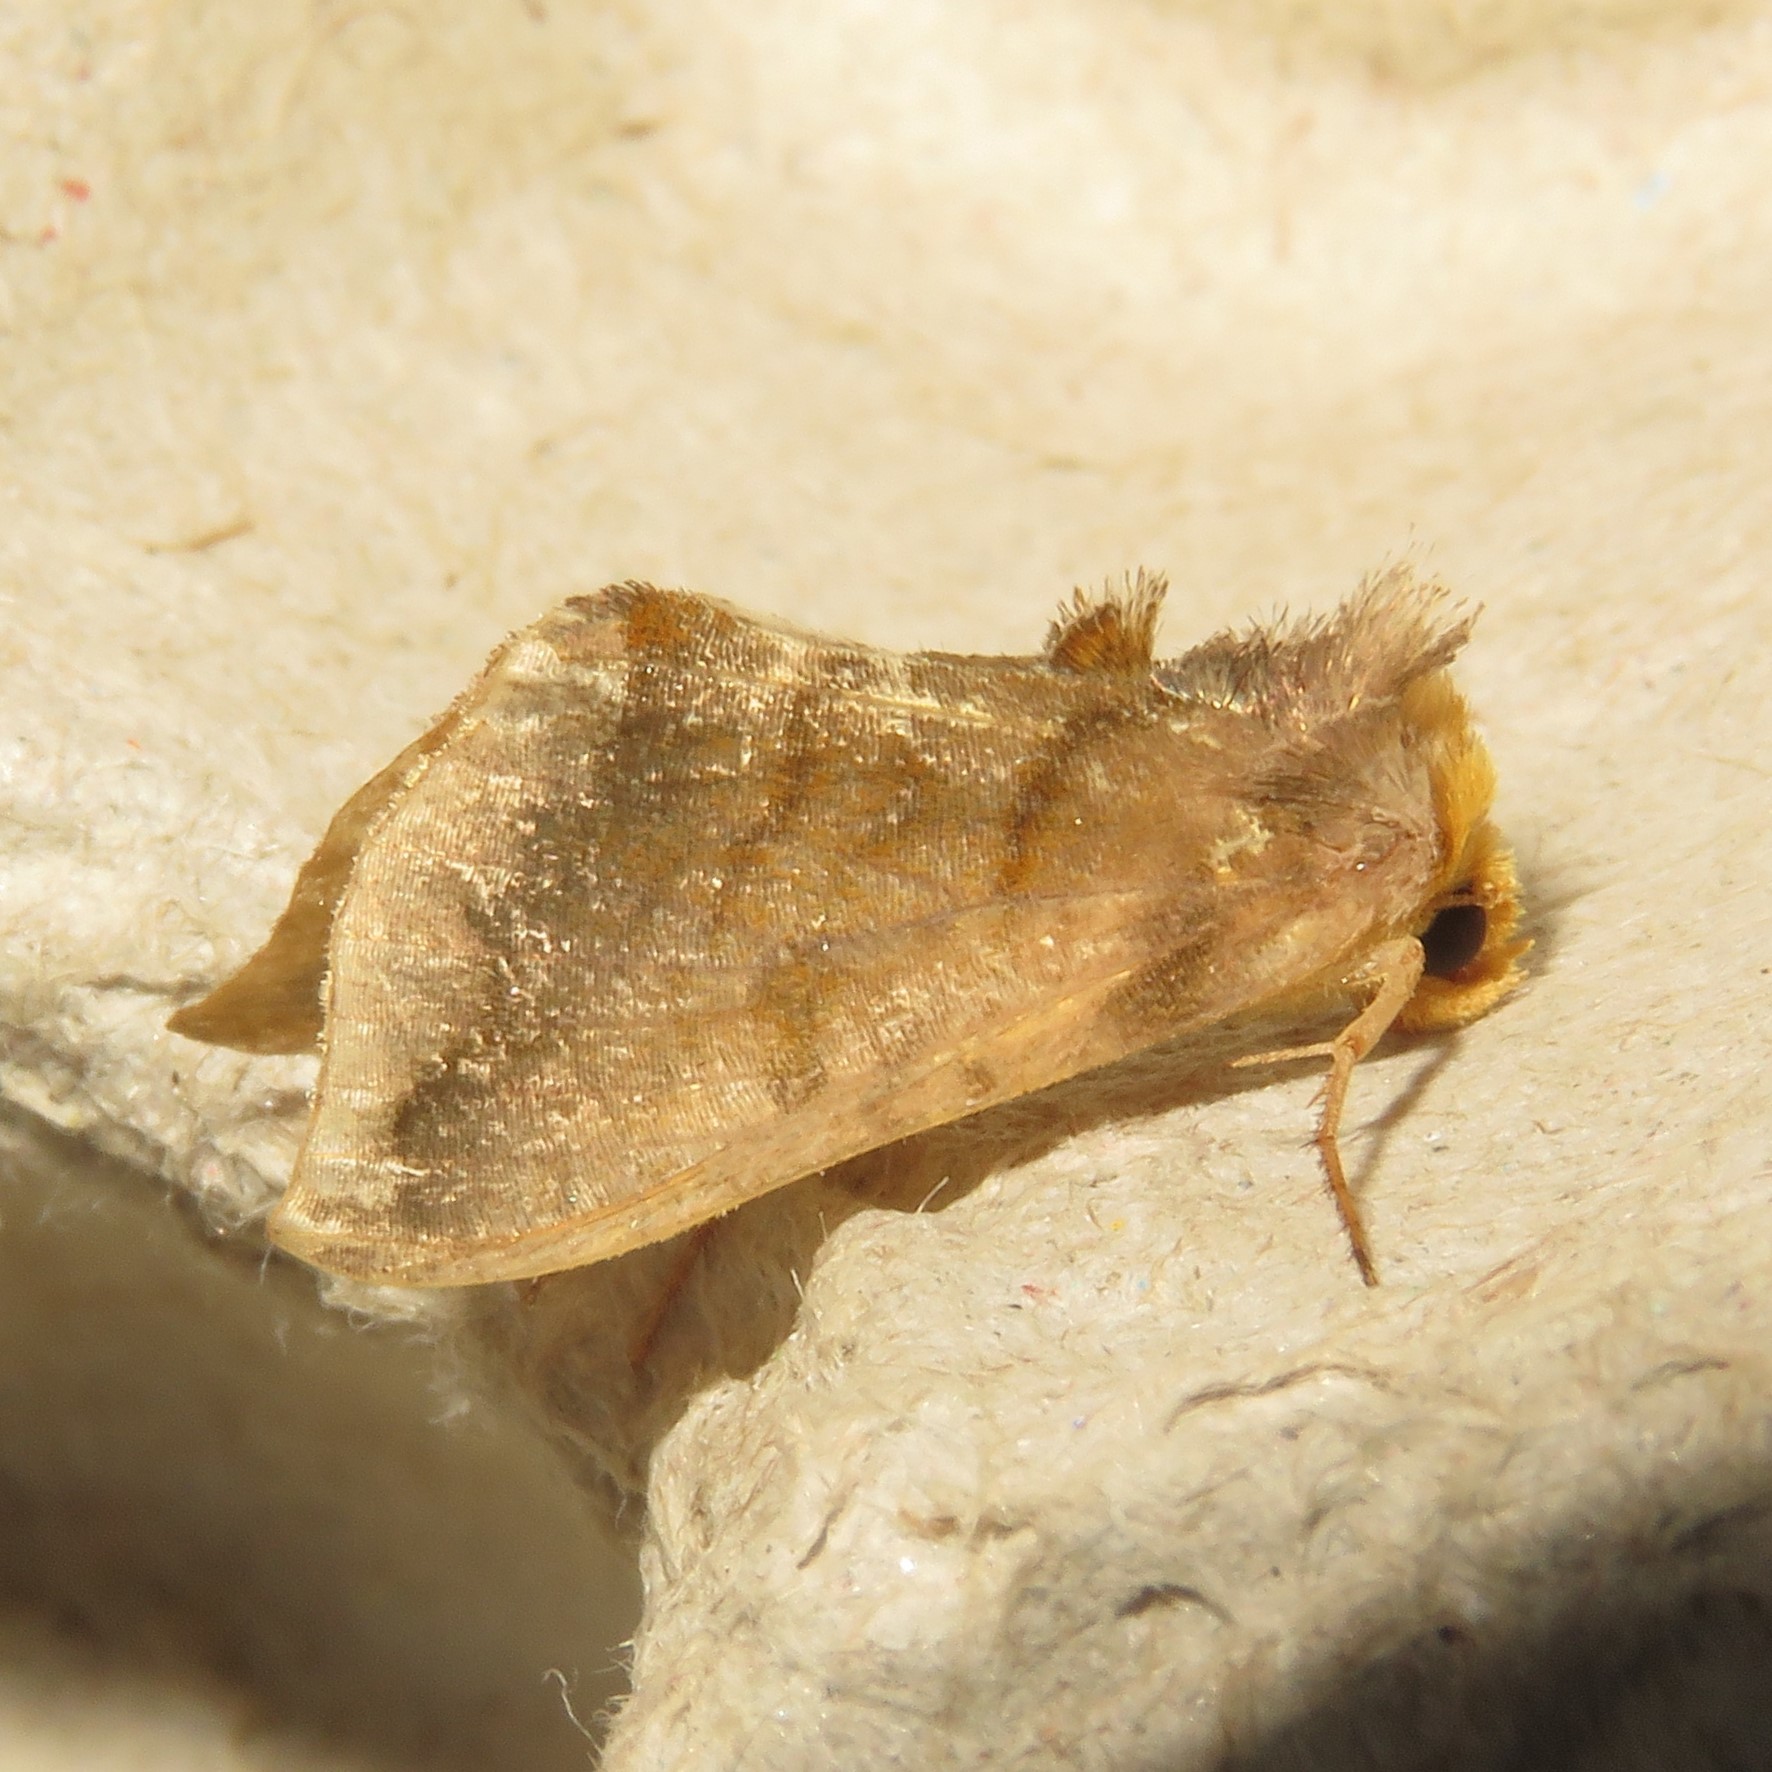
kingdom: Animalia
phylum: Arthropoda
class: Insecta
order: Lepidoptera
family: Noctuidae
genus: Allagrapha
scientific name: Allagrapha aerea
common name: Unspotted looper moth
